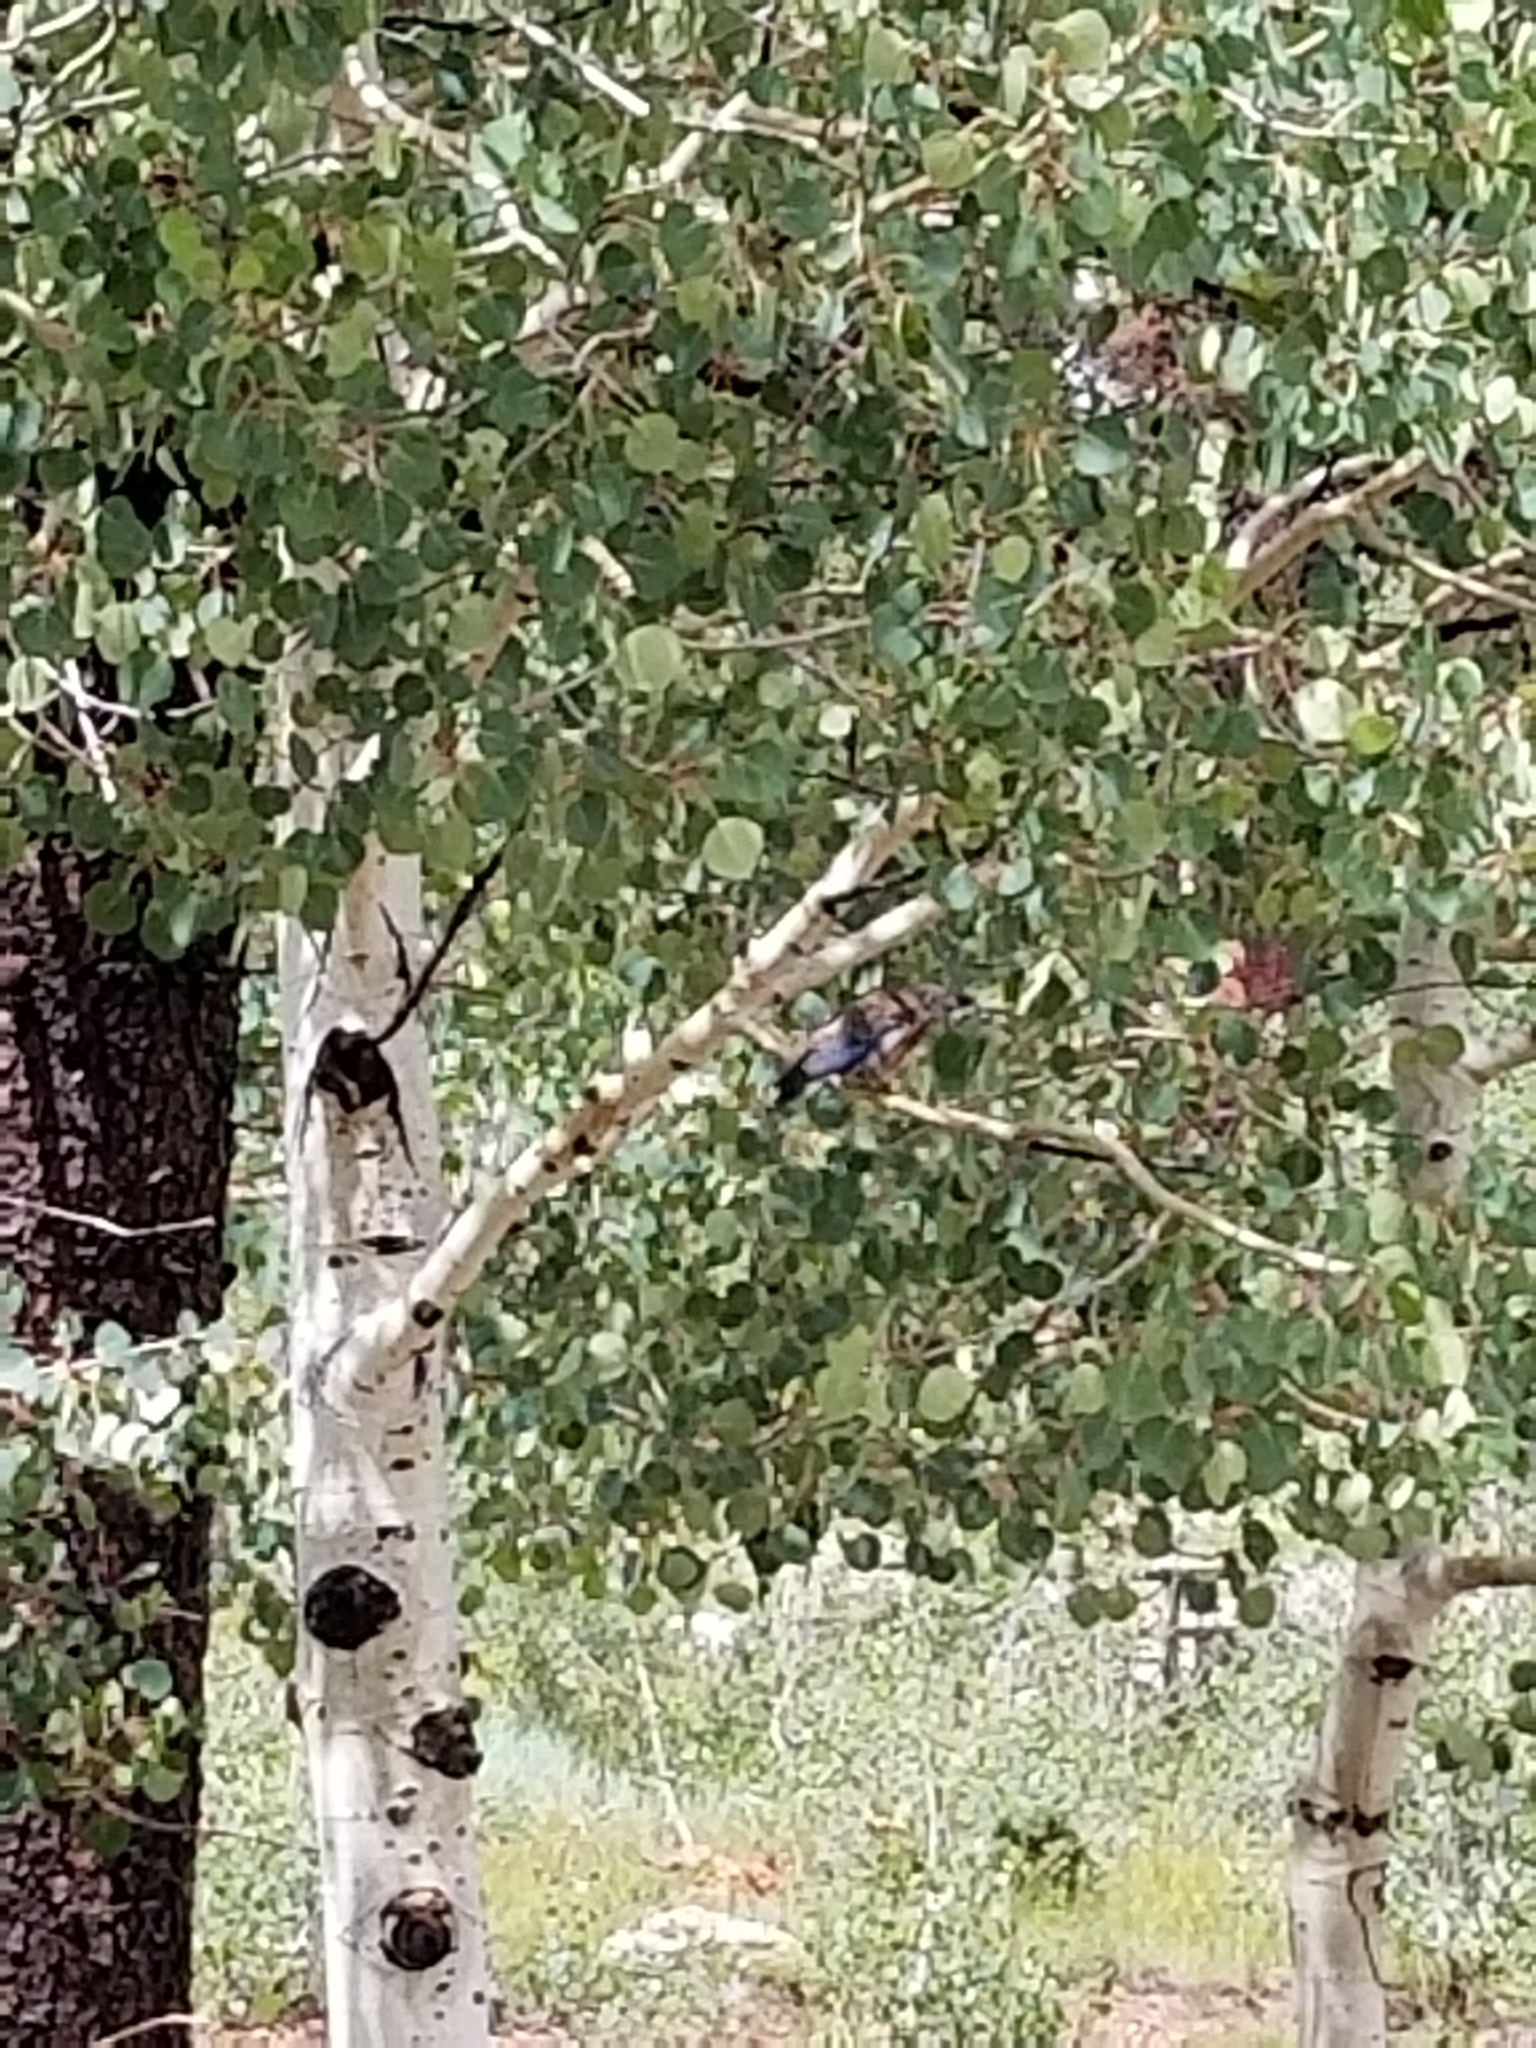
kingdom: Plantae
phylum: Tracheophyta
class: Magnoliopsida
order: Malpighiales
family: Salicaceae
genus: Populus
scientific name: Populus tremuloides
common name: Quaking aspen
